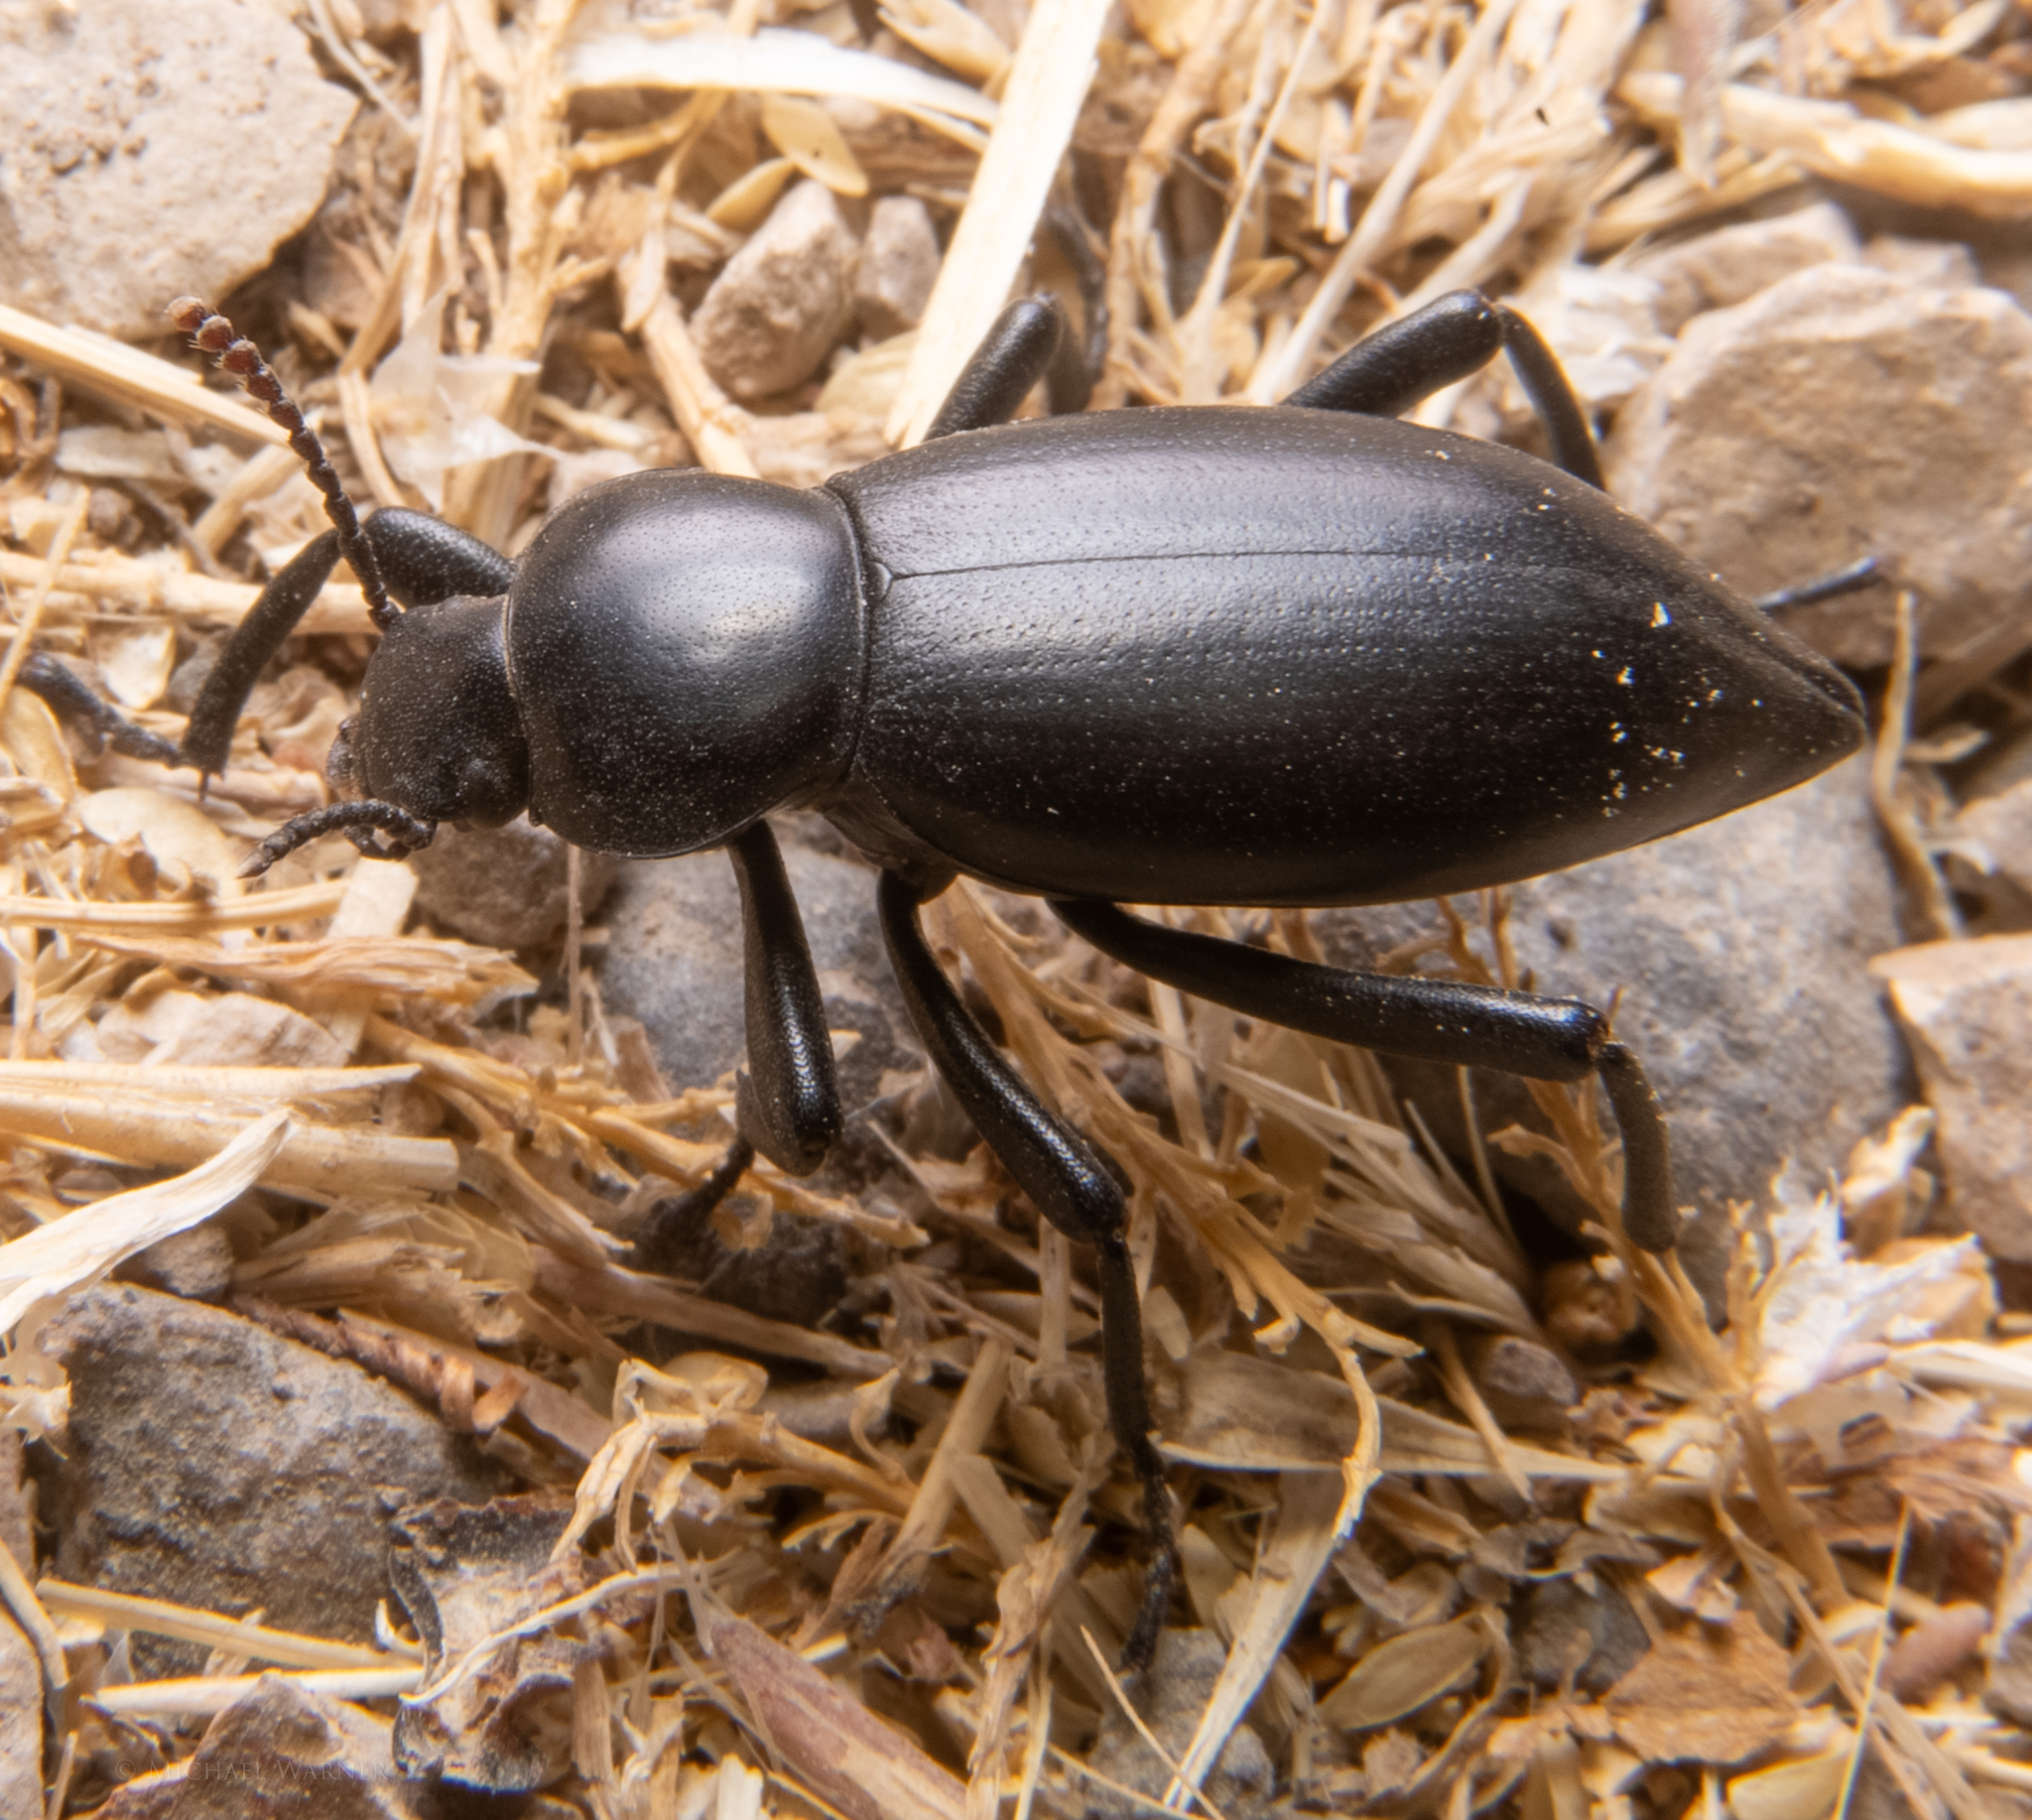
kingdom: Animalia
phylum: Arthropoda
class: Insecta
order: Coleoptera
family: Tenebrionidae
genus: Eleodes
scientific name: Eleodes dentipes
